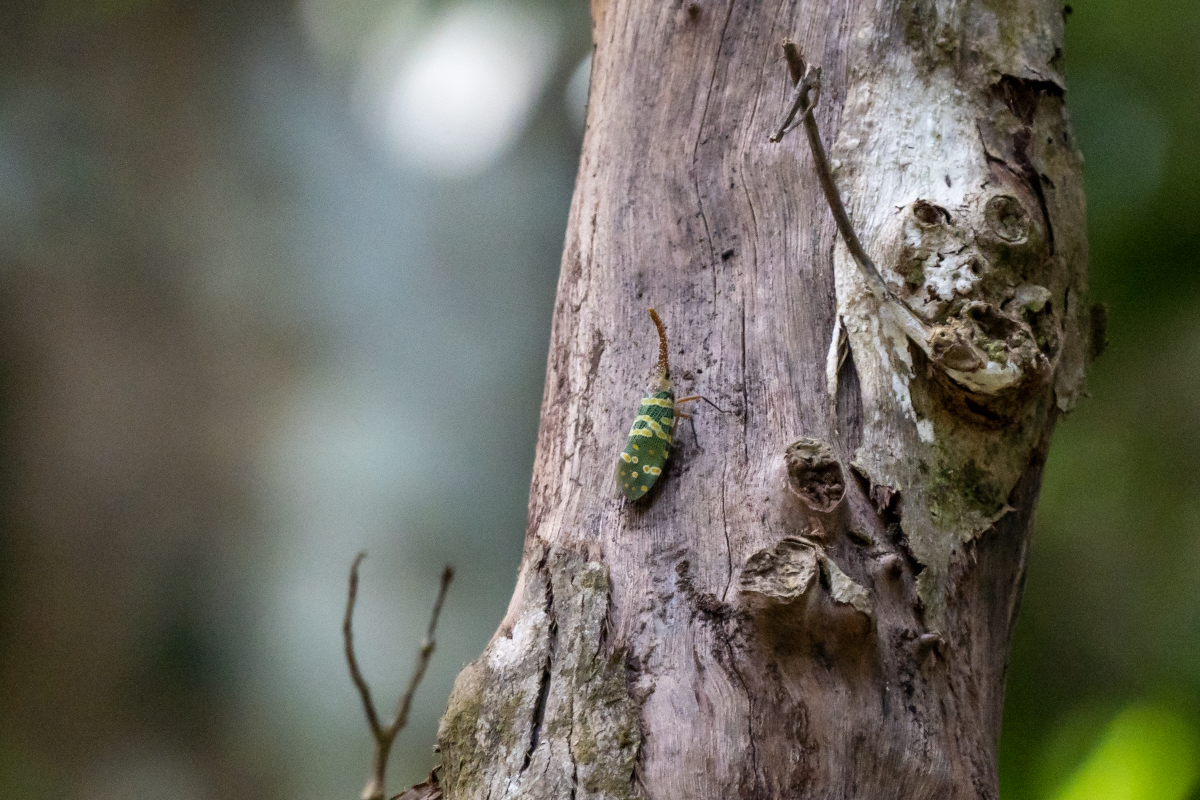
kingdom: Animalia
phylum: Arthropoda
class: Insecta
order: Hemiptera
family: Fulgoridae
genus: Pyrops
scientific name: Pyrops candelaria
